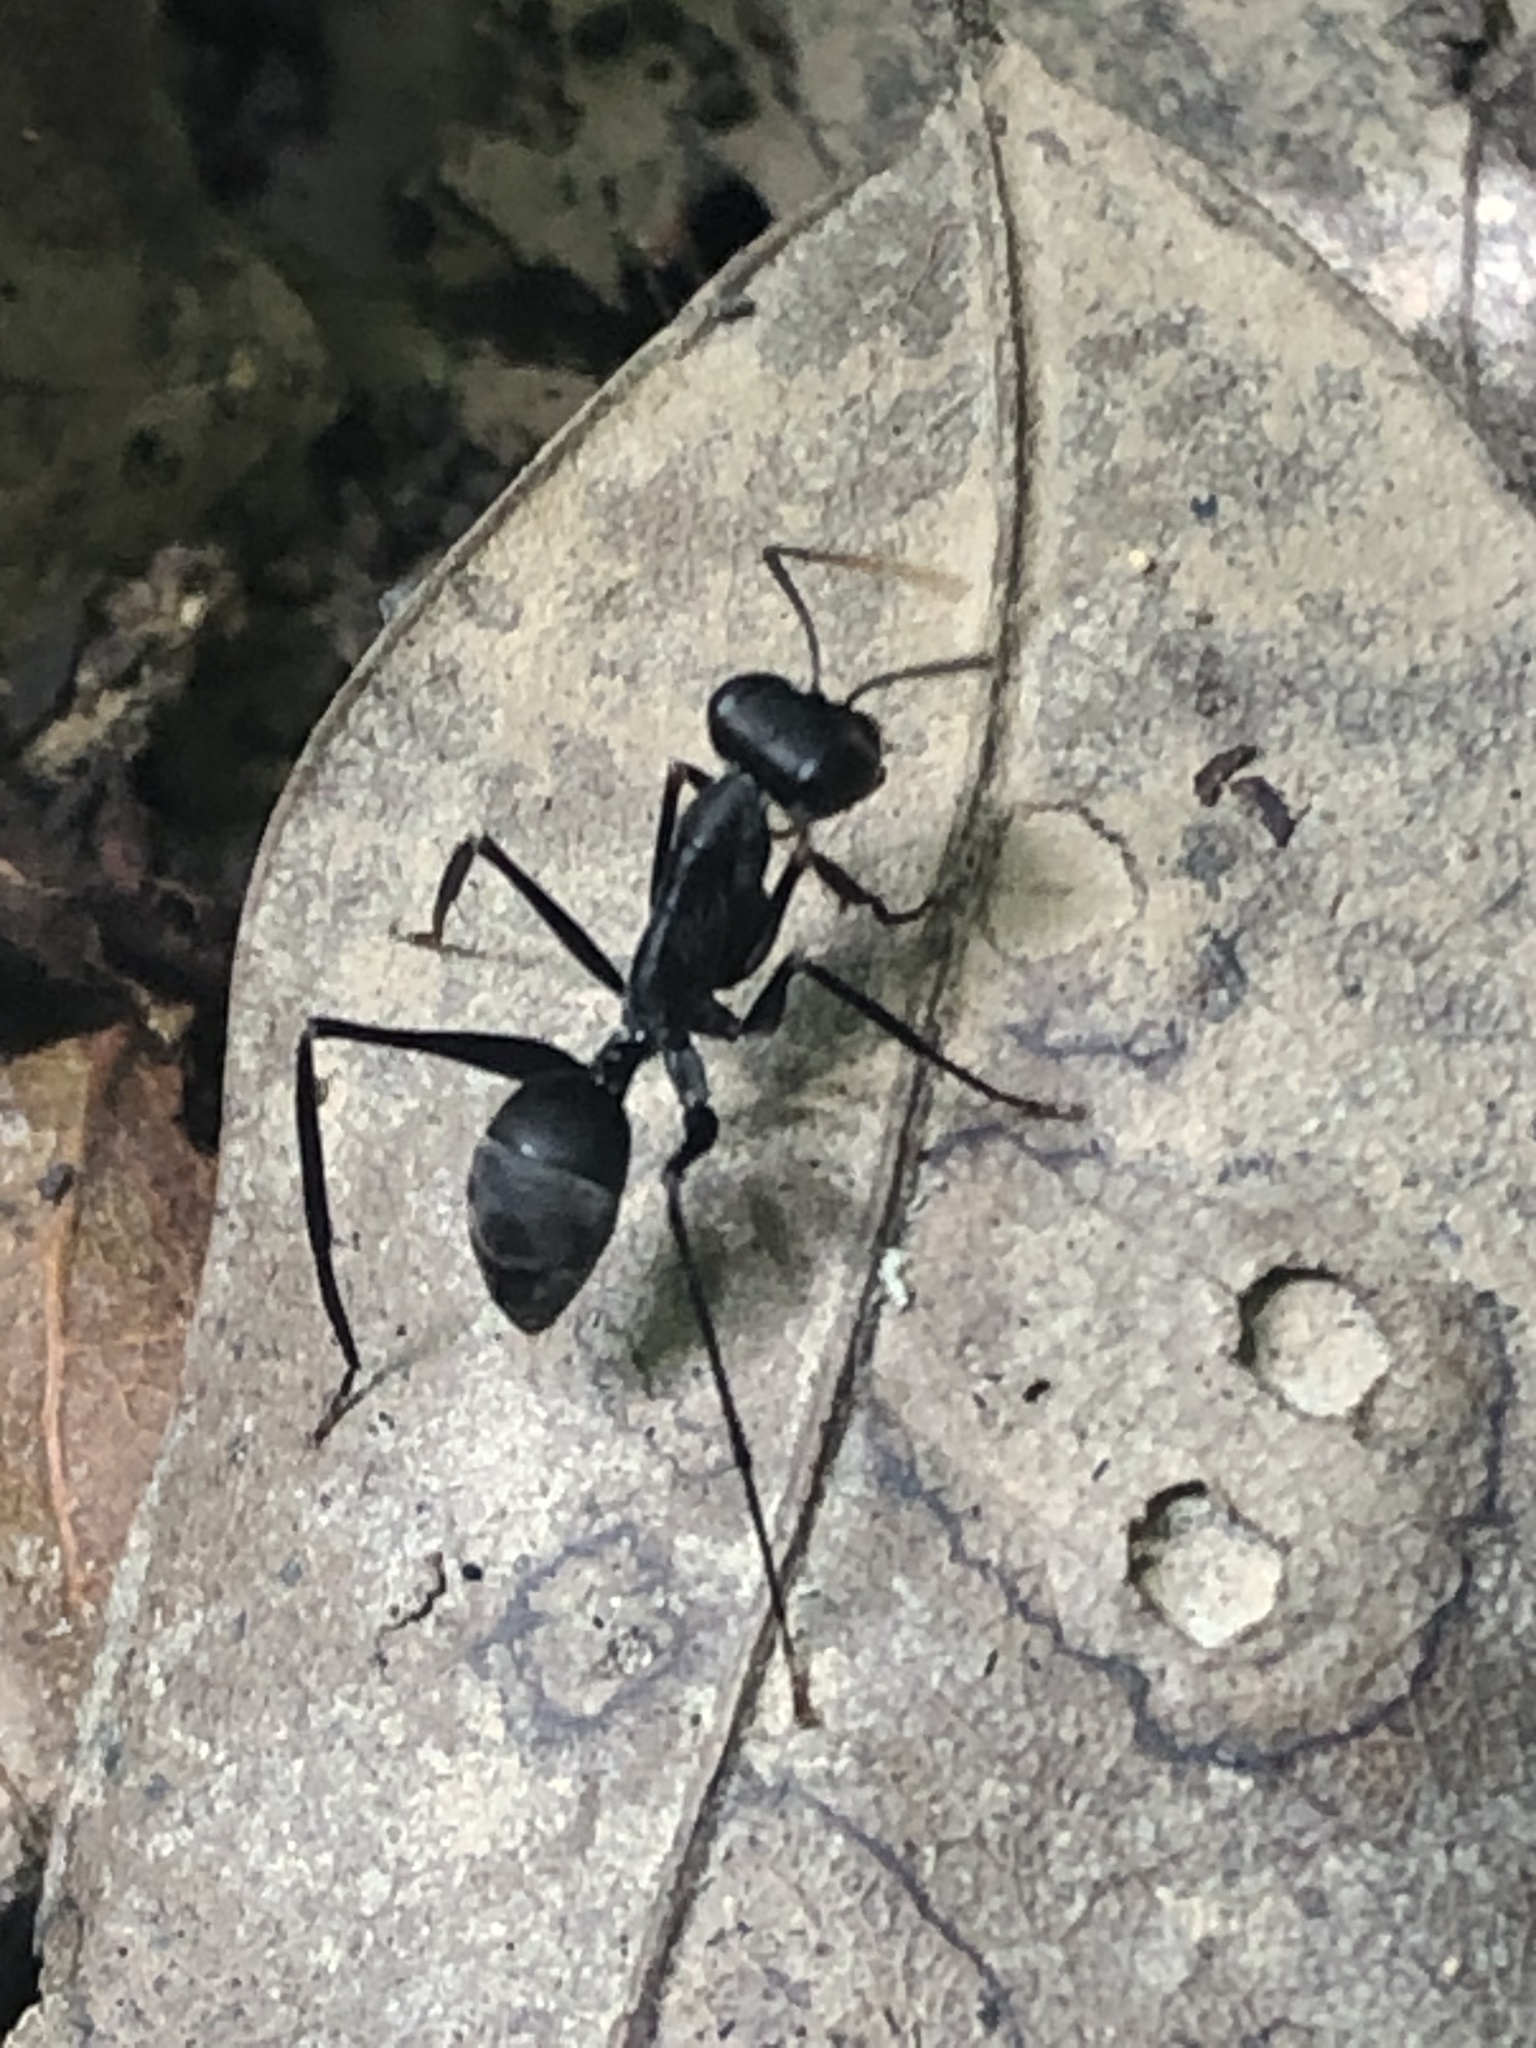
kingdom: Animalia
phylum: Arthropoda
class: Insecta
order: Hymenoptera
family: Formicidae
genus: Gigantiops
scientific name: Gigantiops destructor
